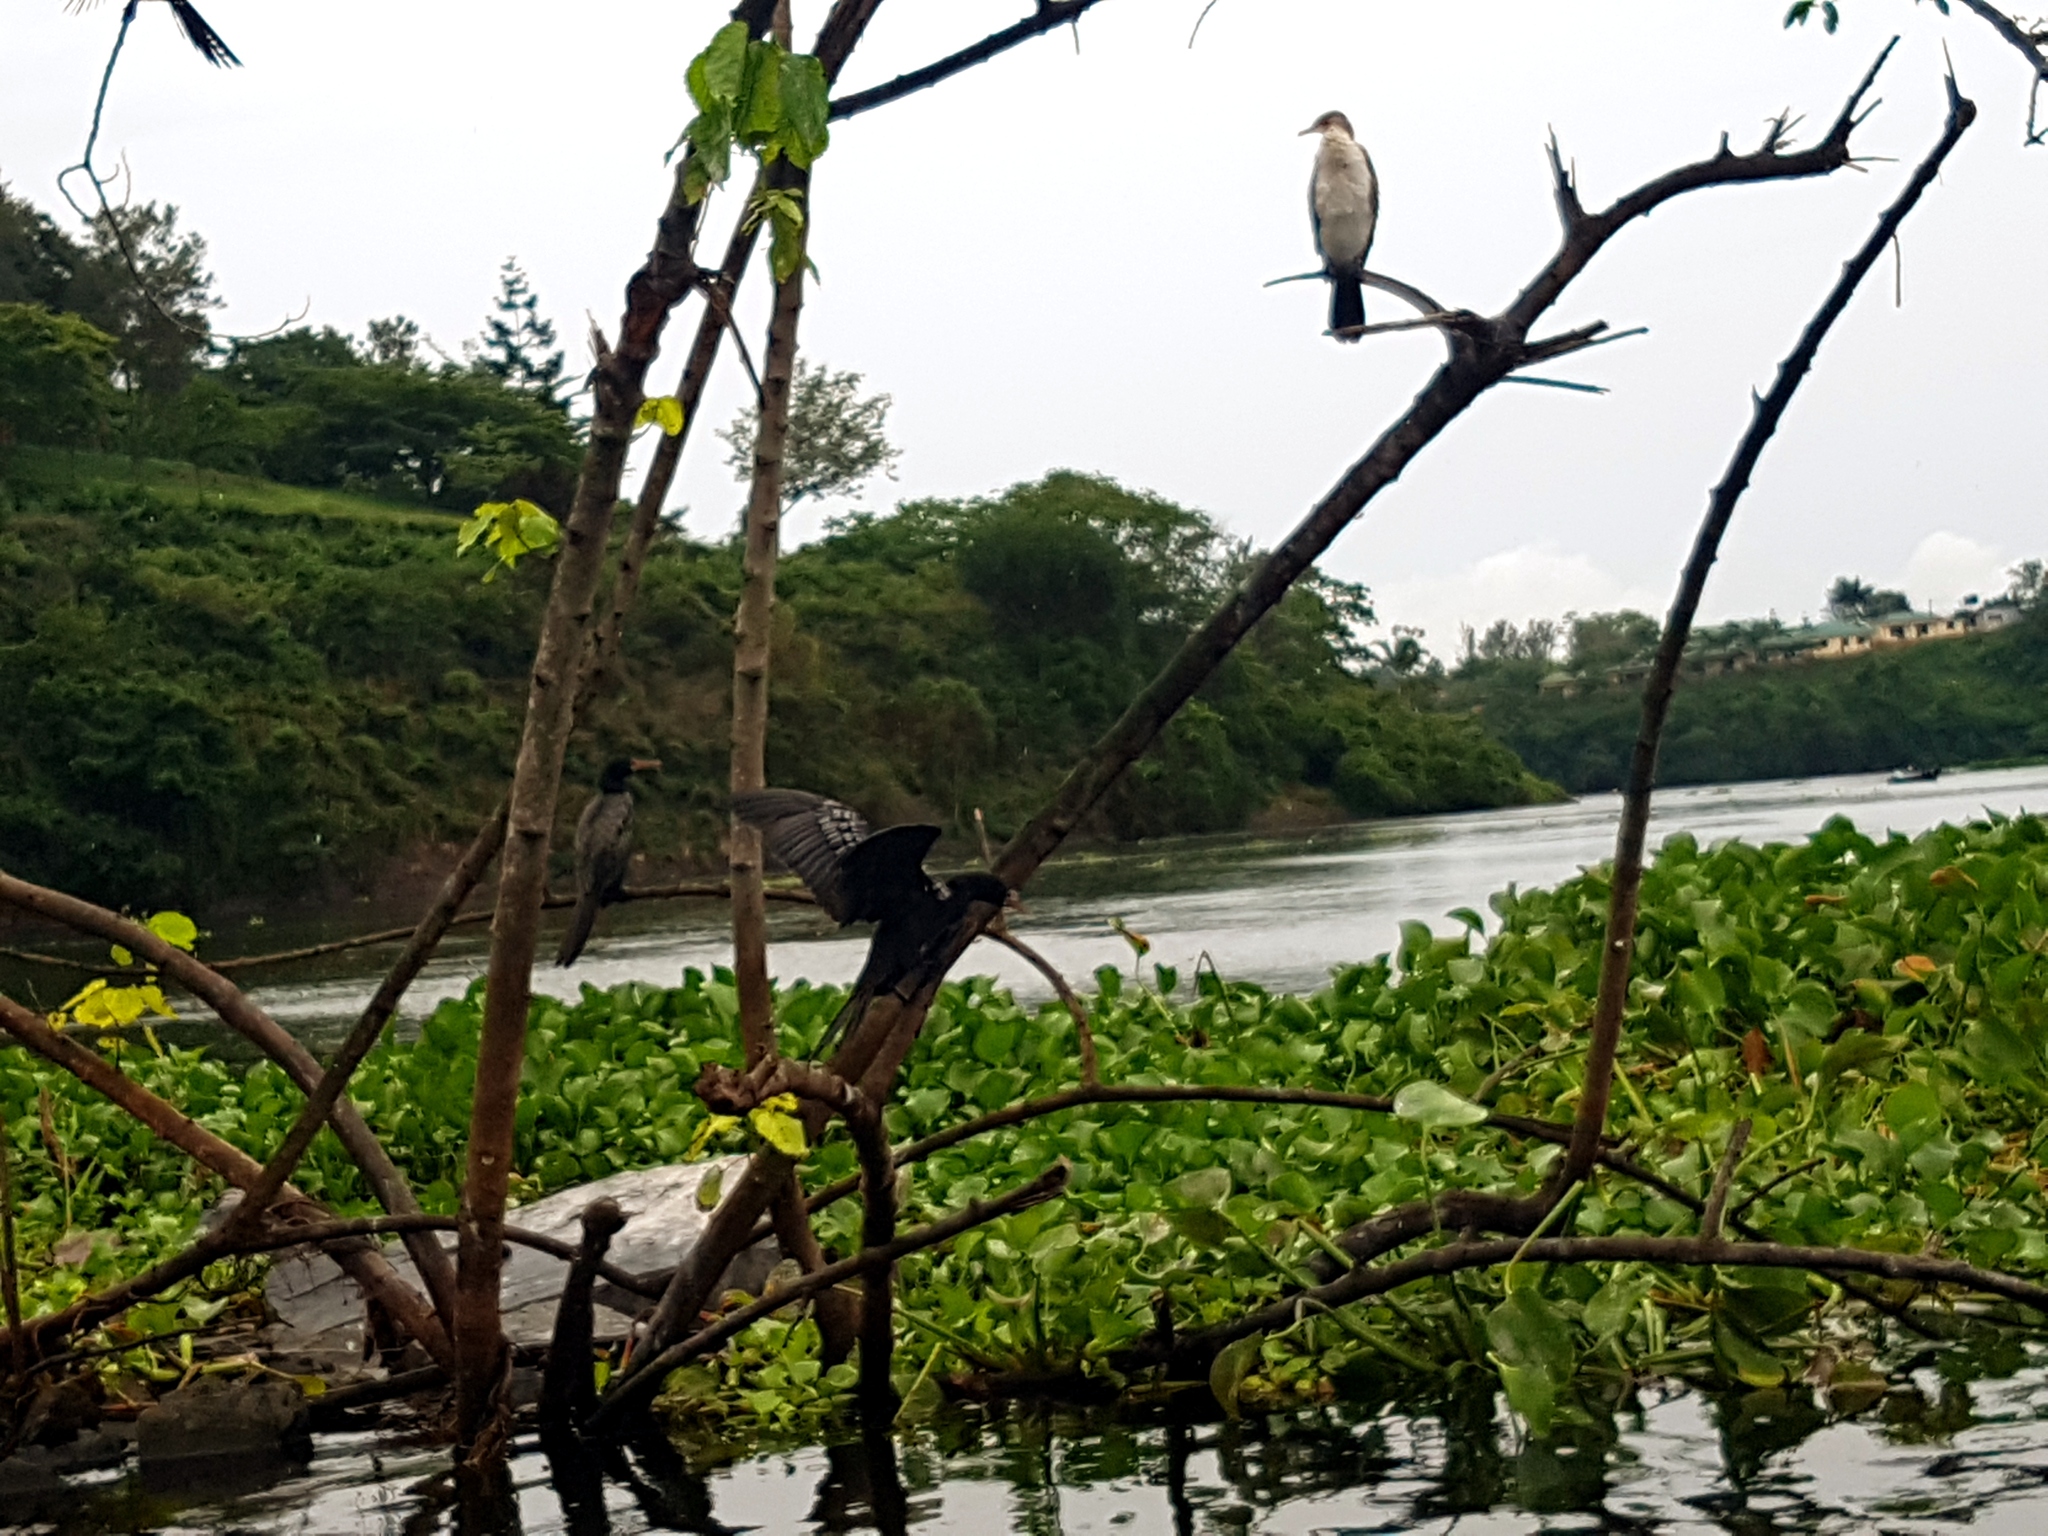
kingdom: Animalia
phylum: Chordata
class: Aves
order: Suliformes
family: Phalacrocoracidae
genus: Microcarbo
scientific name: Microcarbo africanus
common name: Long-tailed cormorant
